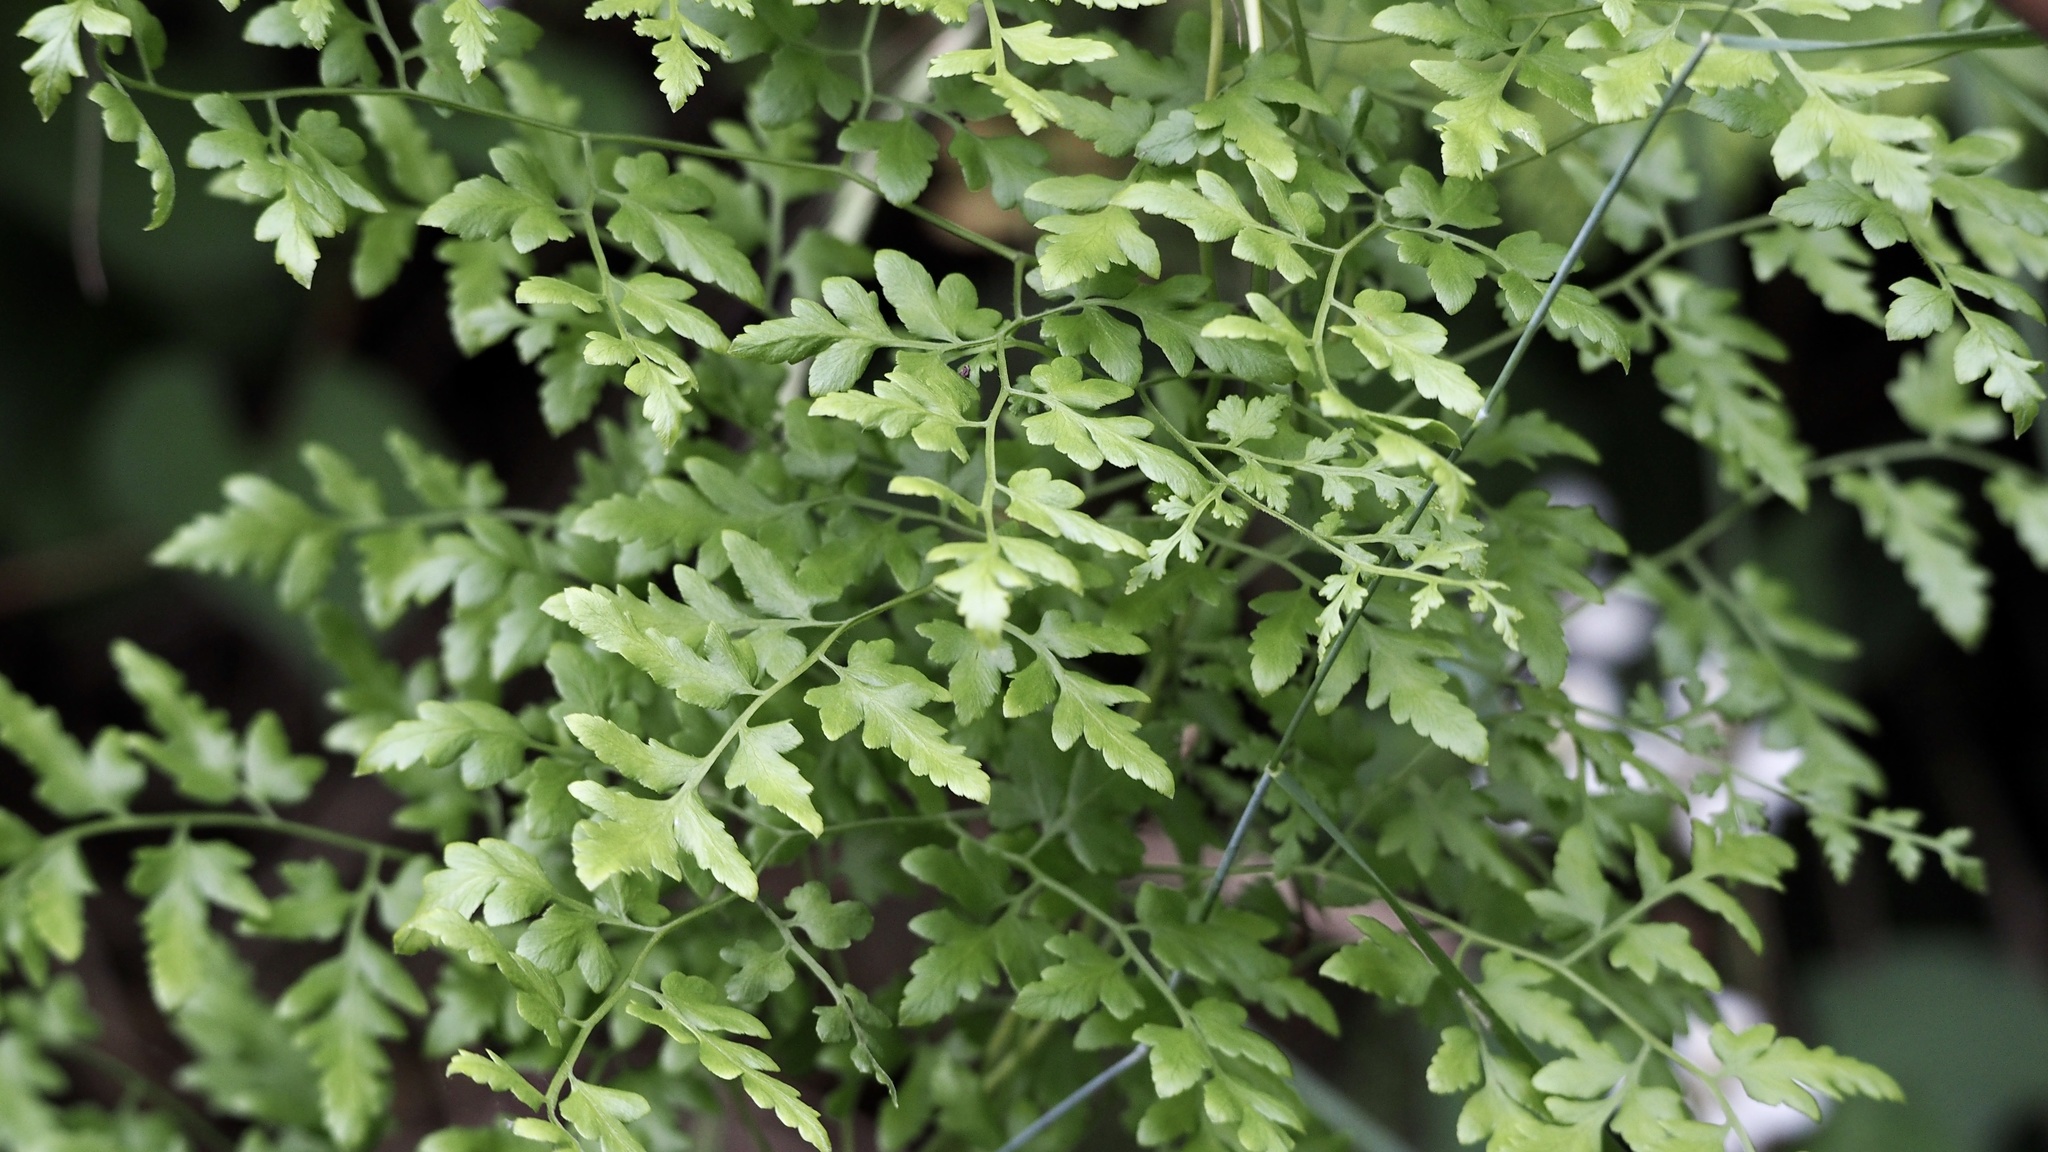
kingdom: Plantae
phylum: Tracheophyta
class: Polypodiopsida
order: Schizaeales
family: Lygodiaceae
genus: Lygodium
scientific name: Lygodium japonicum
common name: Japanese climbing fern
